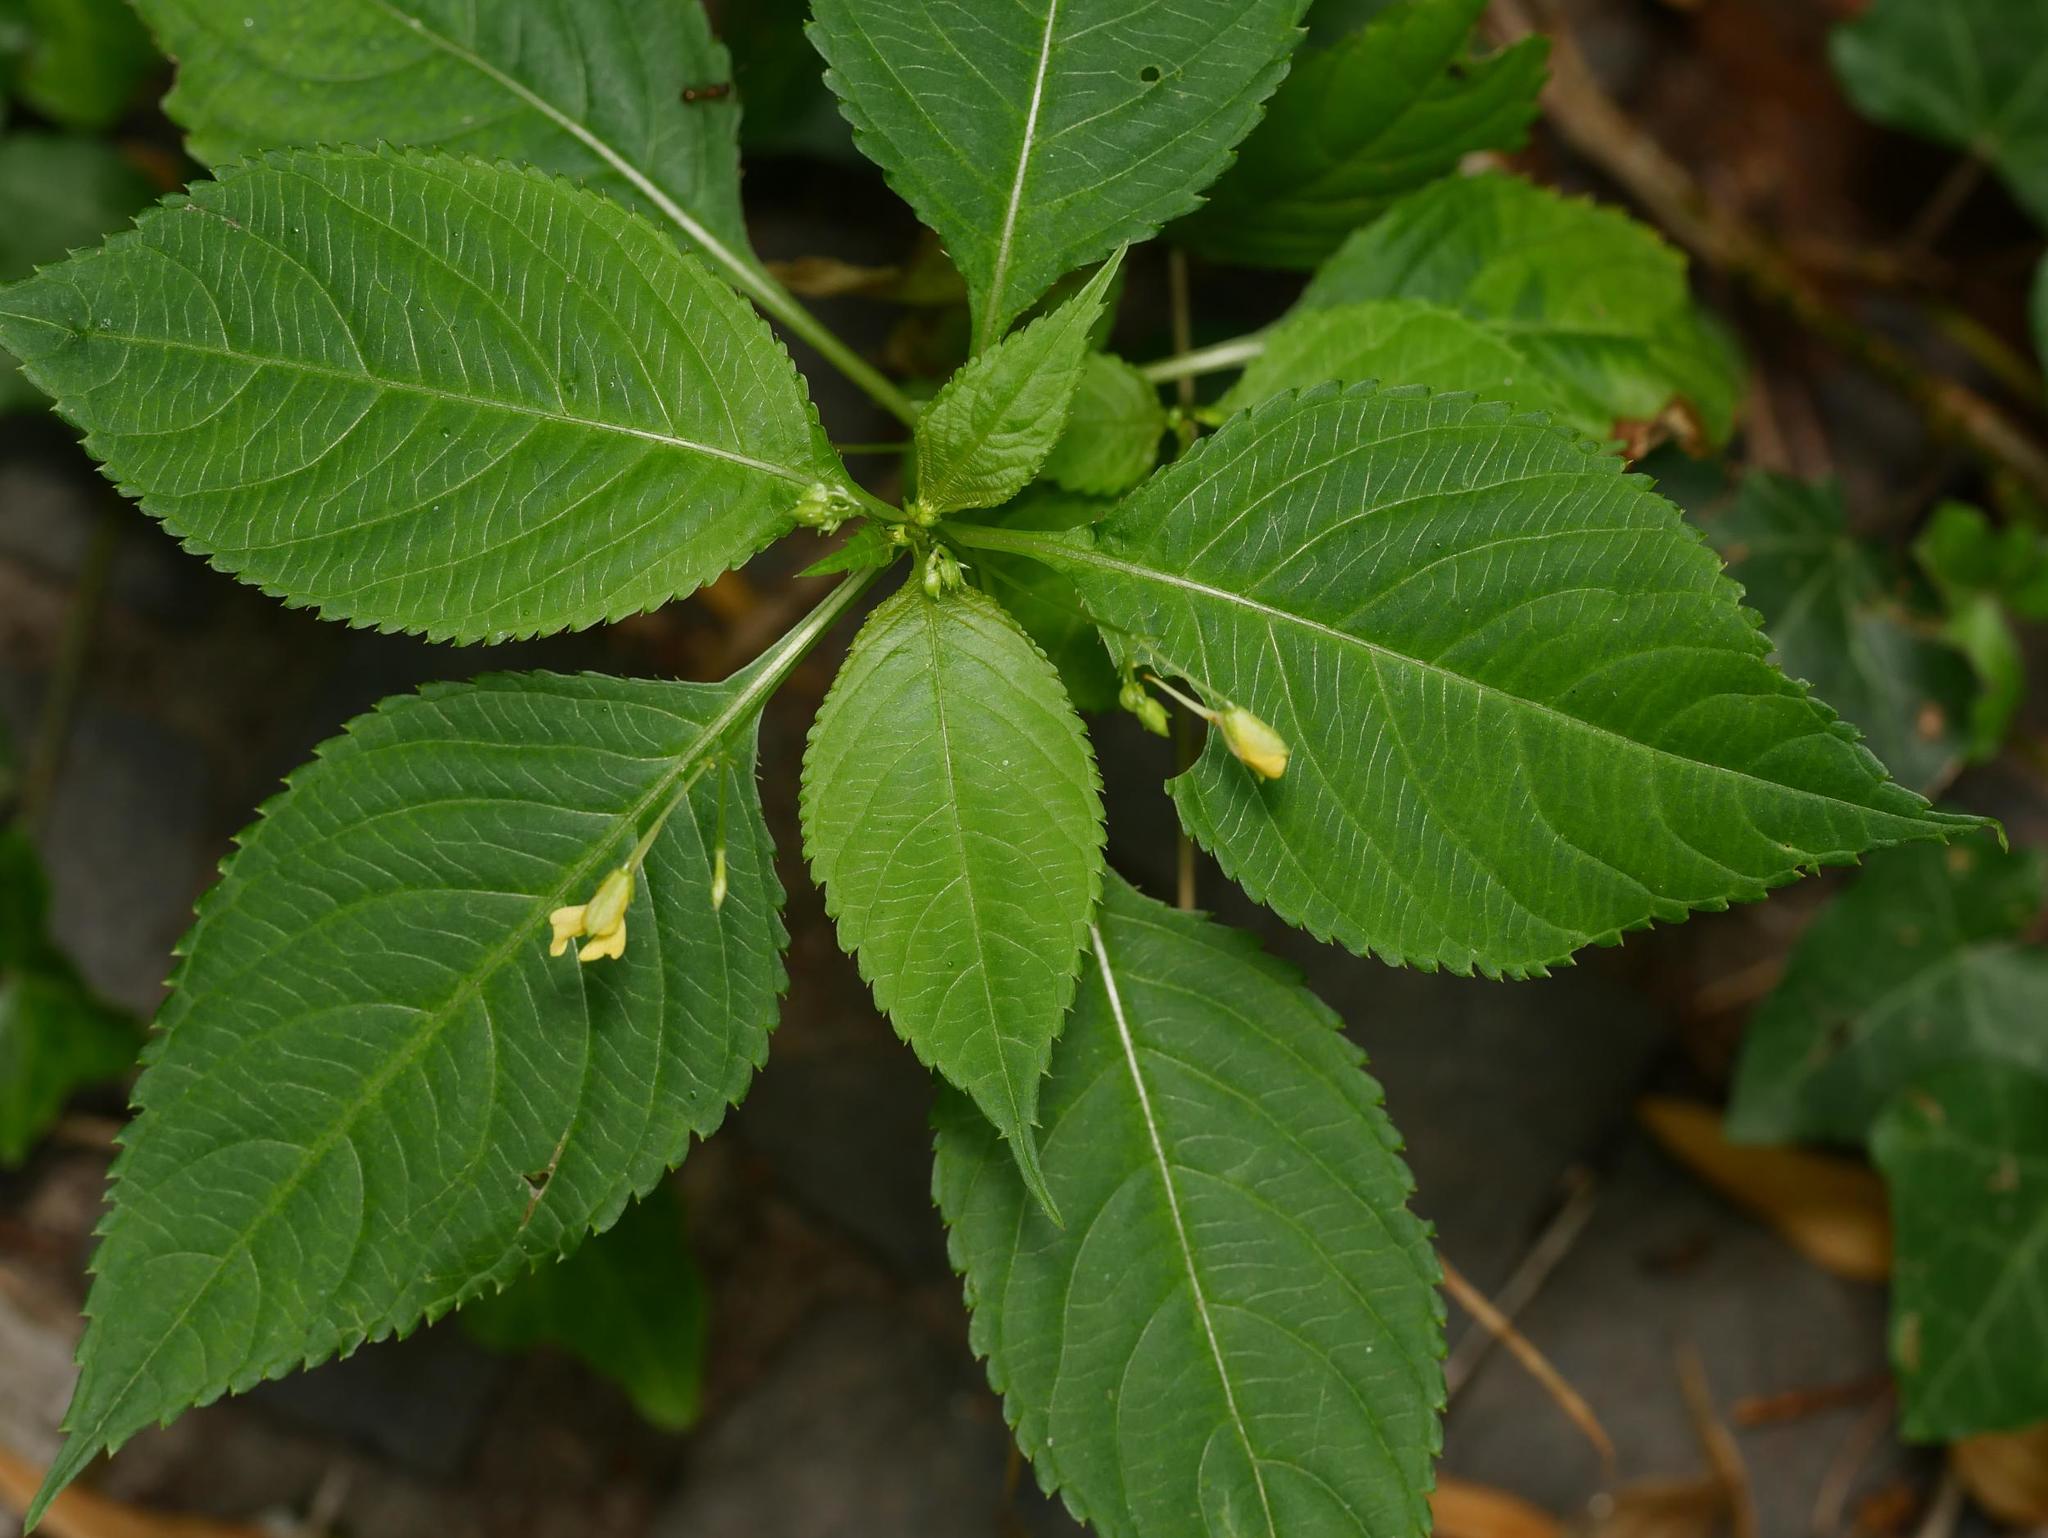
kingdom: Plantae
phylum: Tracheophyta
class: Magnoliopsida
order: Ericales
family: Balsaminaceae
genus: Impatiens
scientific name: Impatiens parviflora
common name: Small balsam
